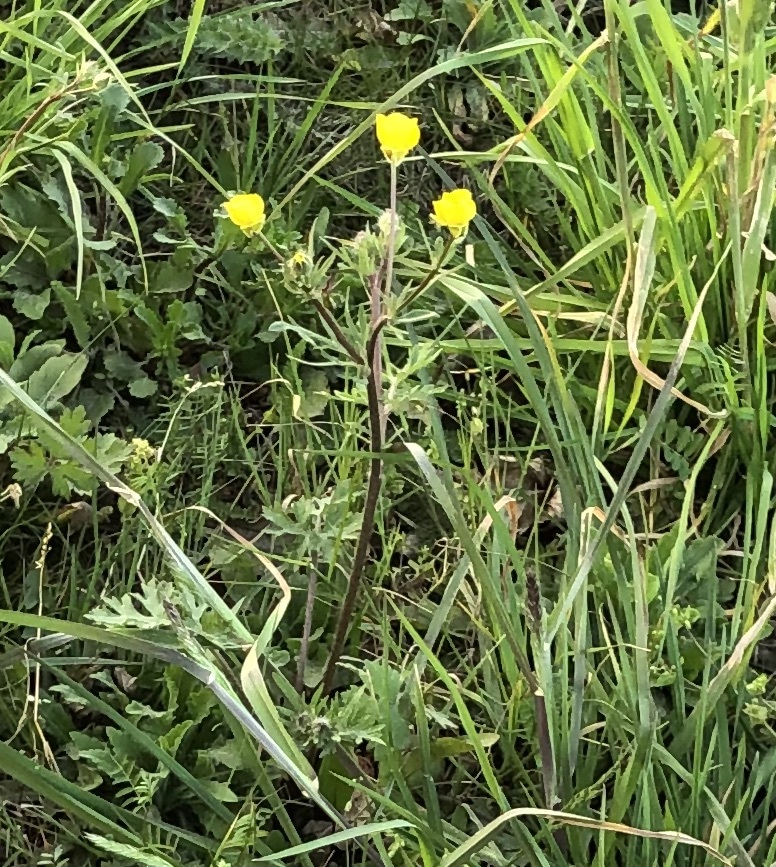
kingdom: Plantae
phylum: Tracheophyta
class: Magnoliopsida
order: Ranunculales
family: Ranunculaceae
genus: Ranunculus
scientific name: Ranunculus bulbosus
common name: Bulbous buttercup
